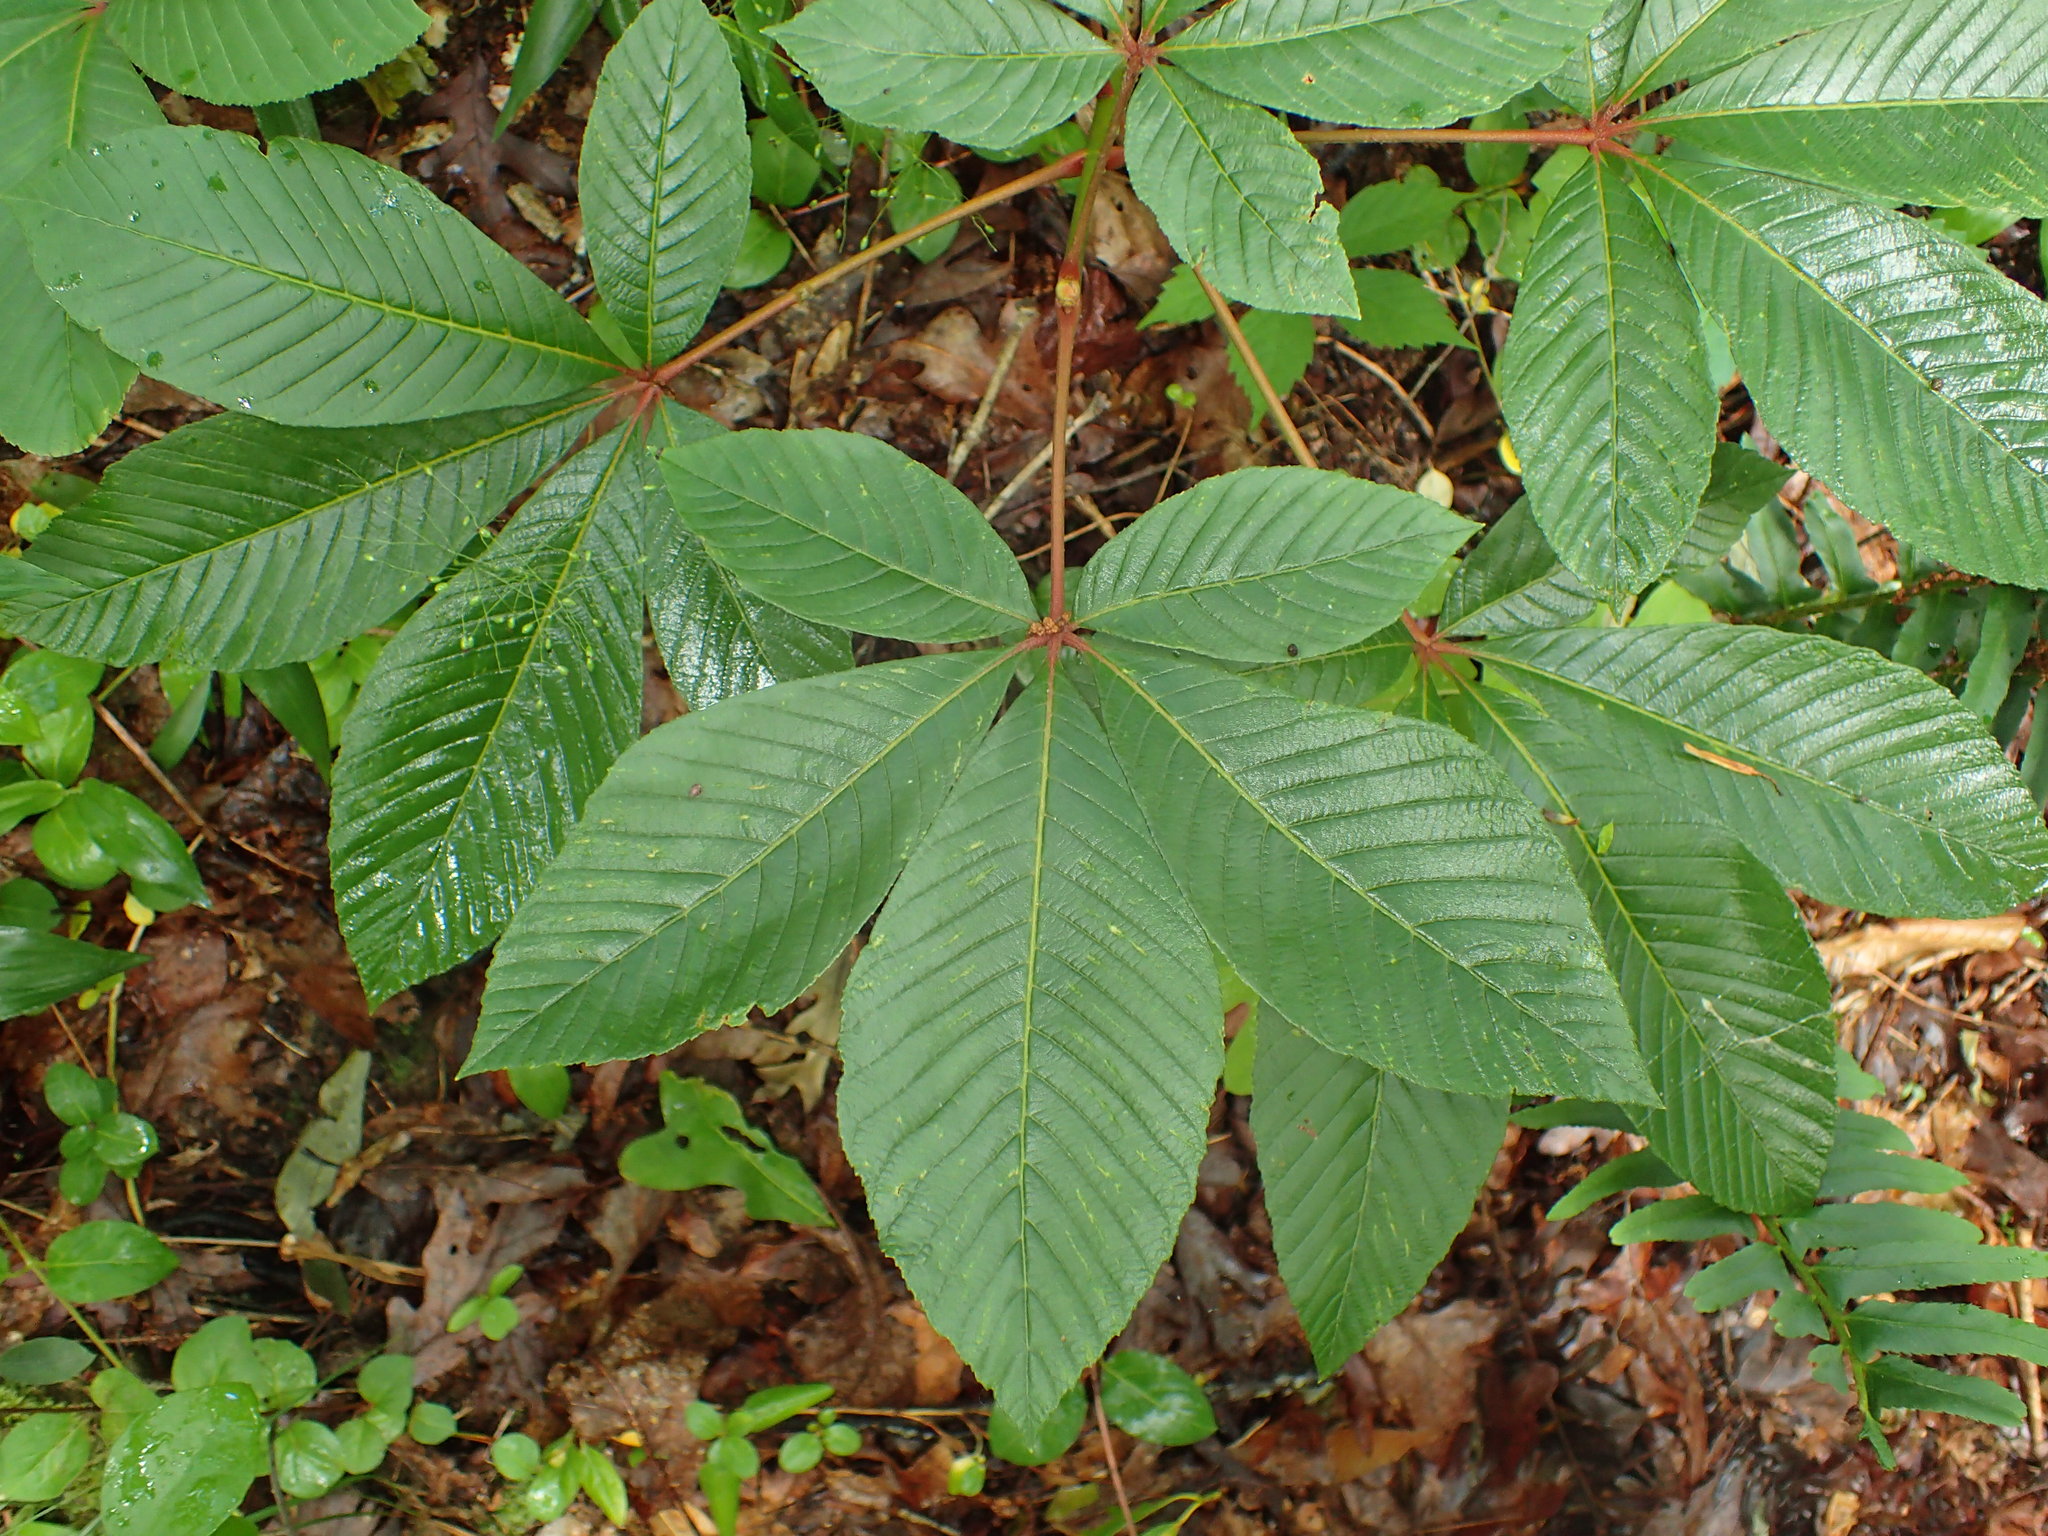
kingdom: Plantae
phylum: Tracheophyta
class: Magnoliopsida
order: Sapindales
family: Sapindaceae
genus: Aesculus
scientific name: Aesculus pavia
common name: Red buckeye
